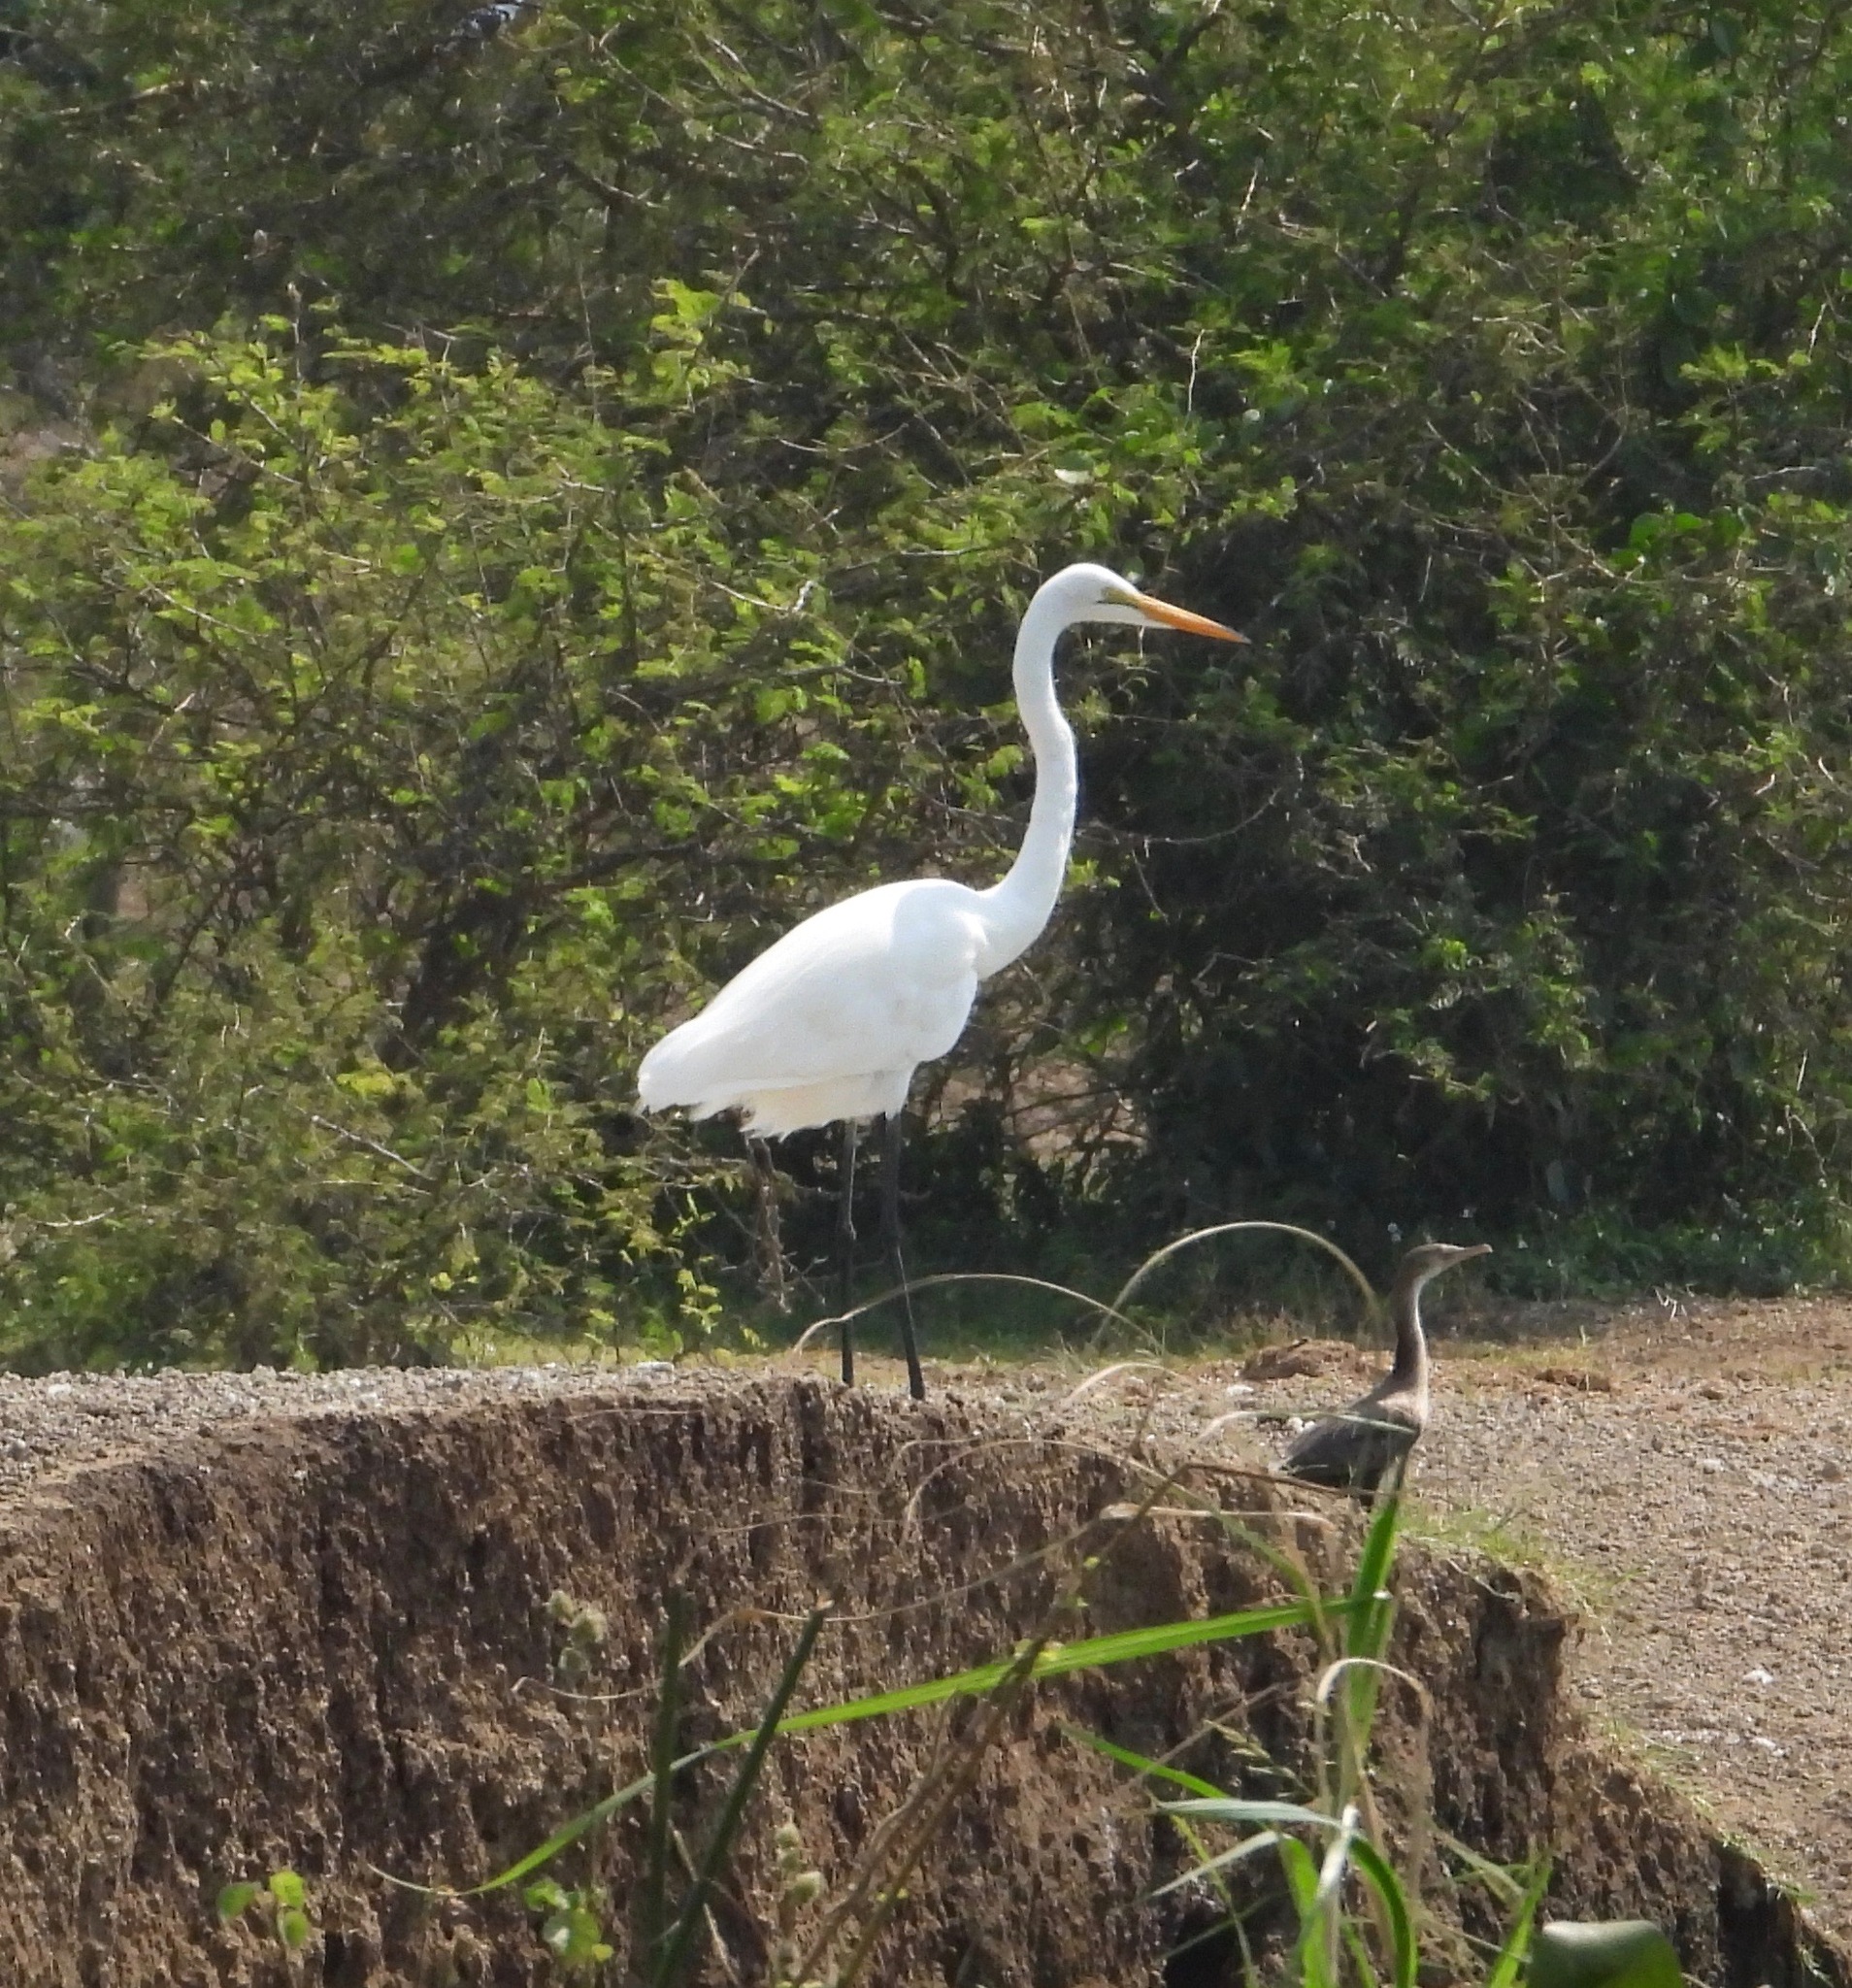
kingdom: Animalia
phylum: Chordata
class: Aves
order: Pelecaniformes
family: Ardeidae
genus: Ardea
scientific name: Ardea alba
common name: Great egret
